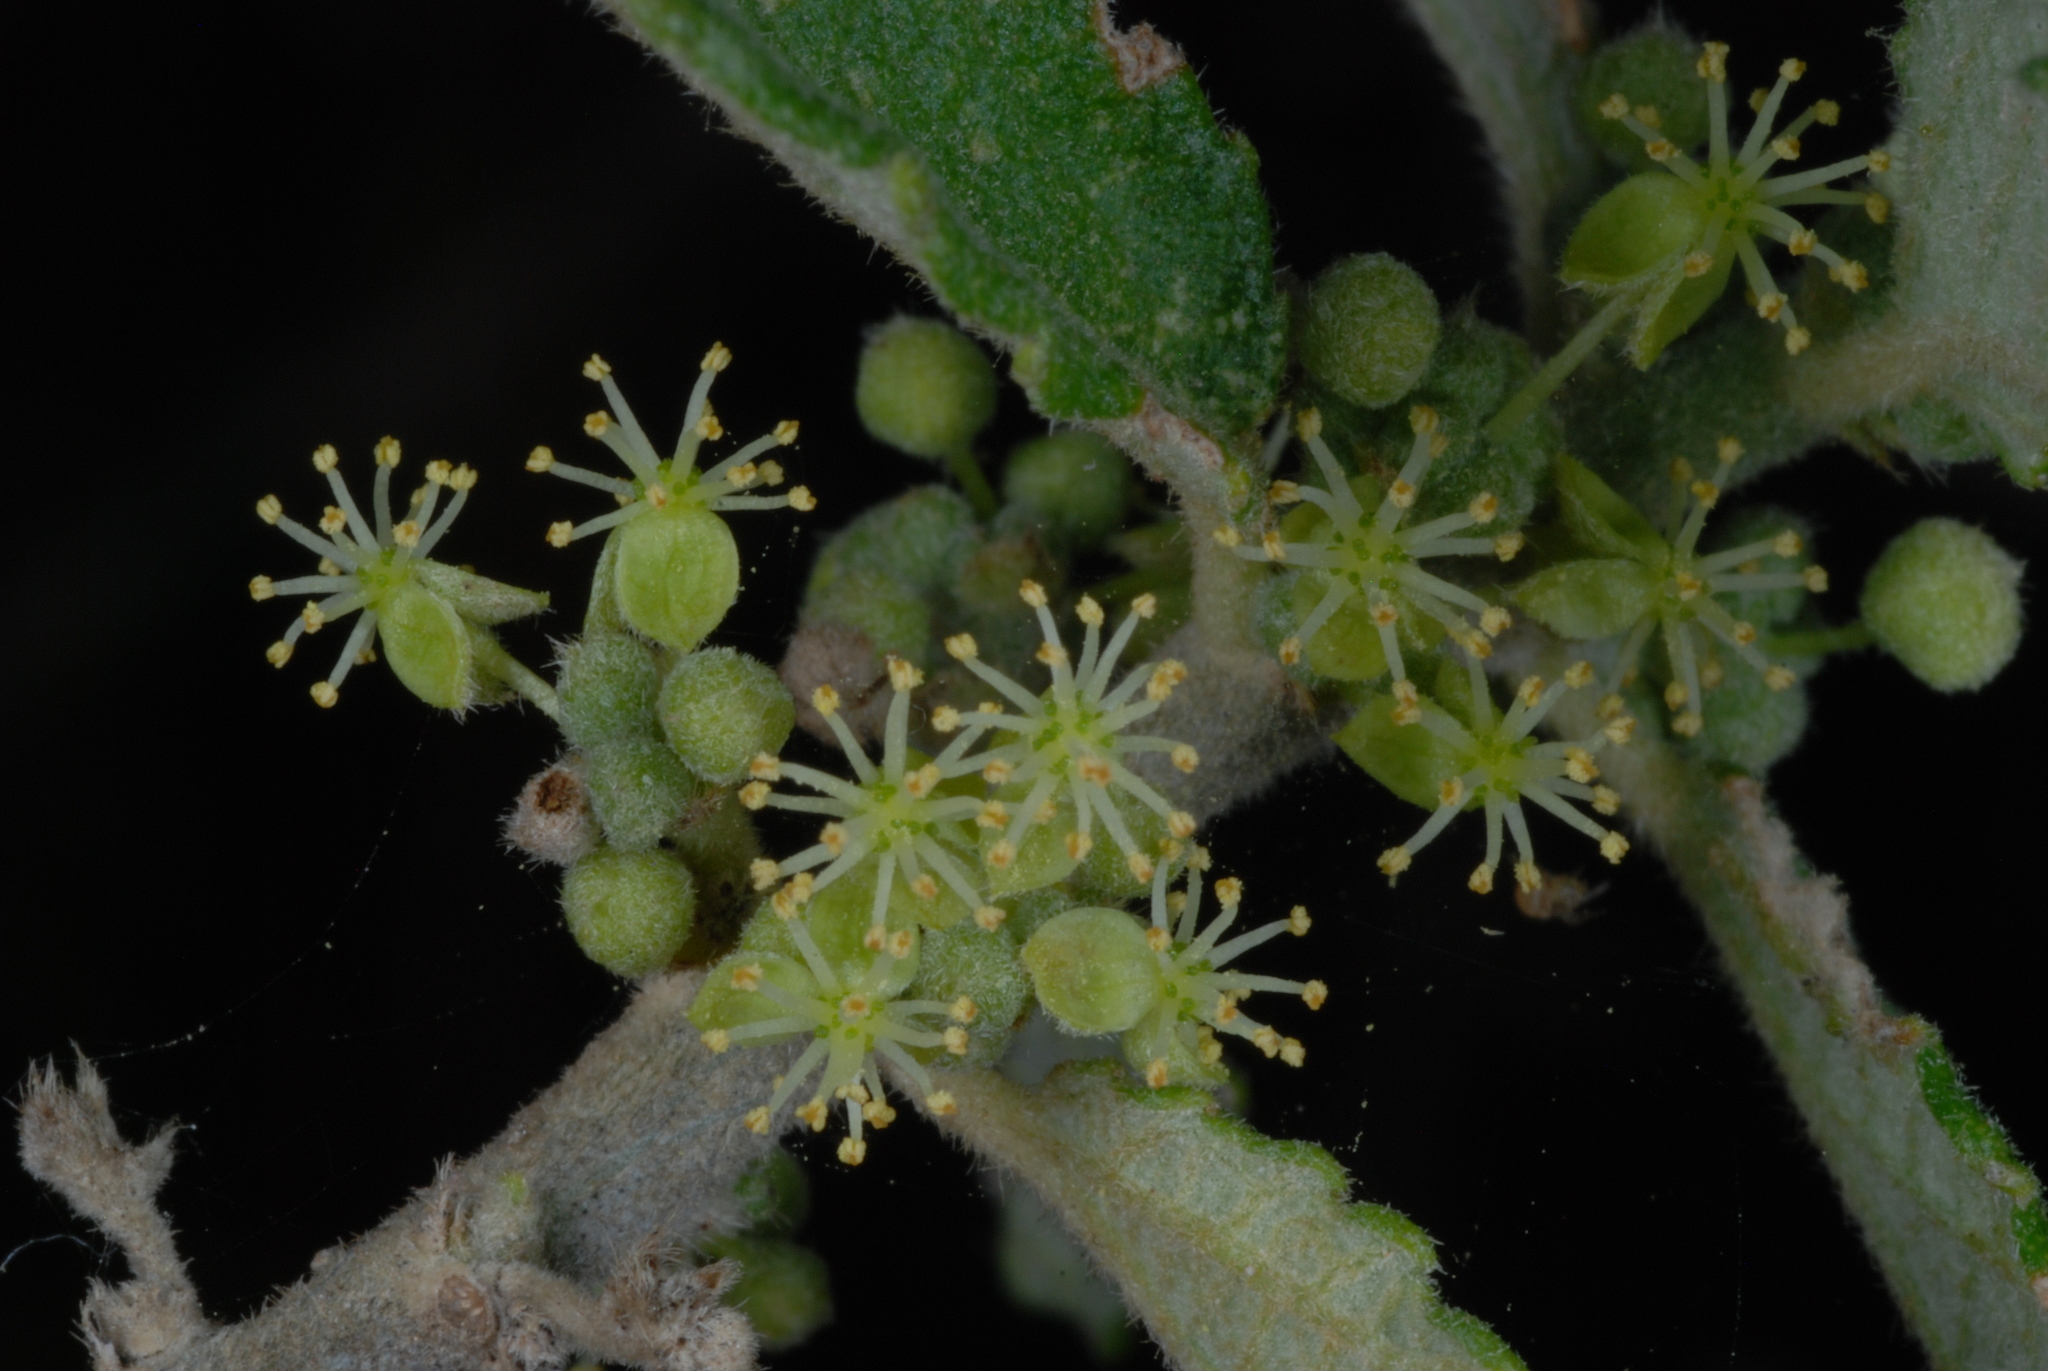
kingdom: Plantae
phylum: Tracheophyta
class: Magnoliopsida
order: Malpighiales
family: Euphorbiaceae
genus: Bernardia
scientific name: Bernardia myricifolia
